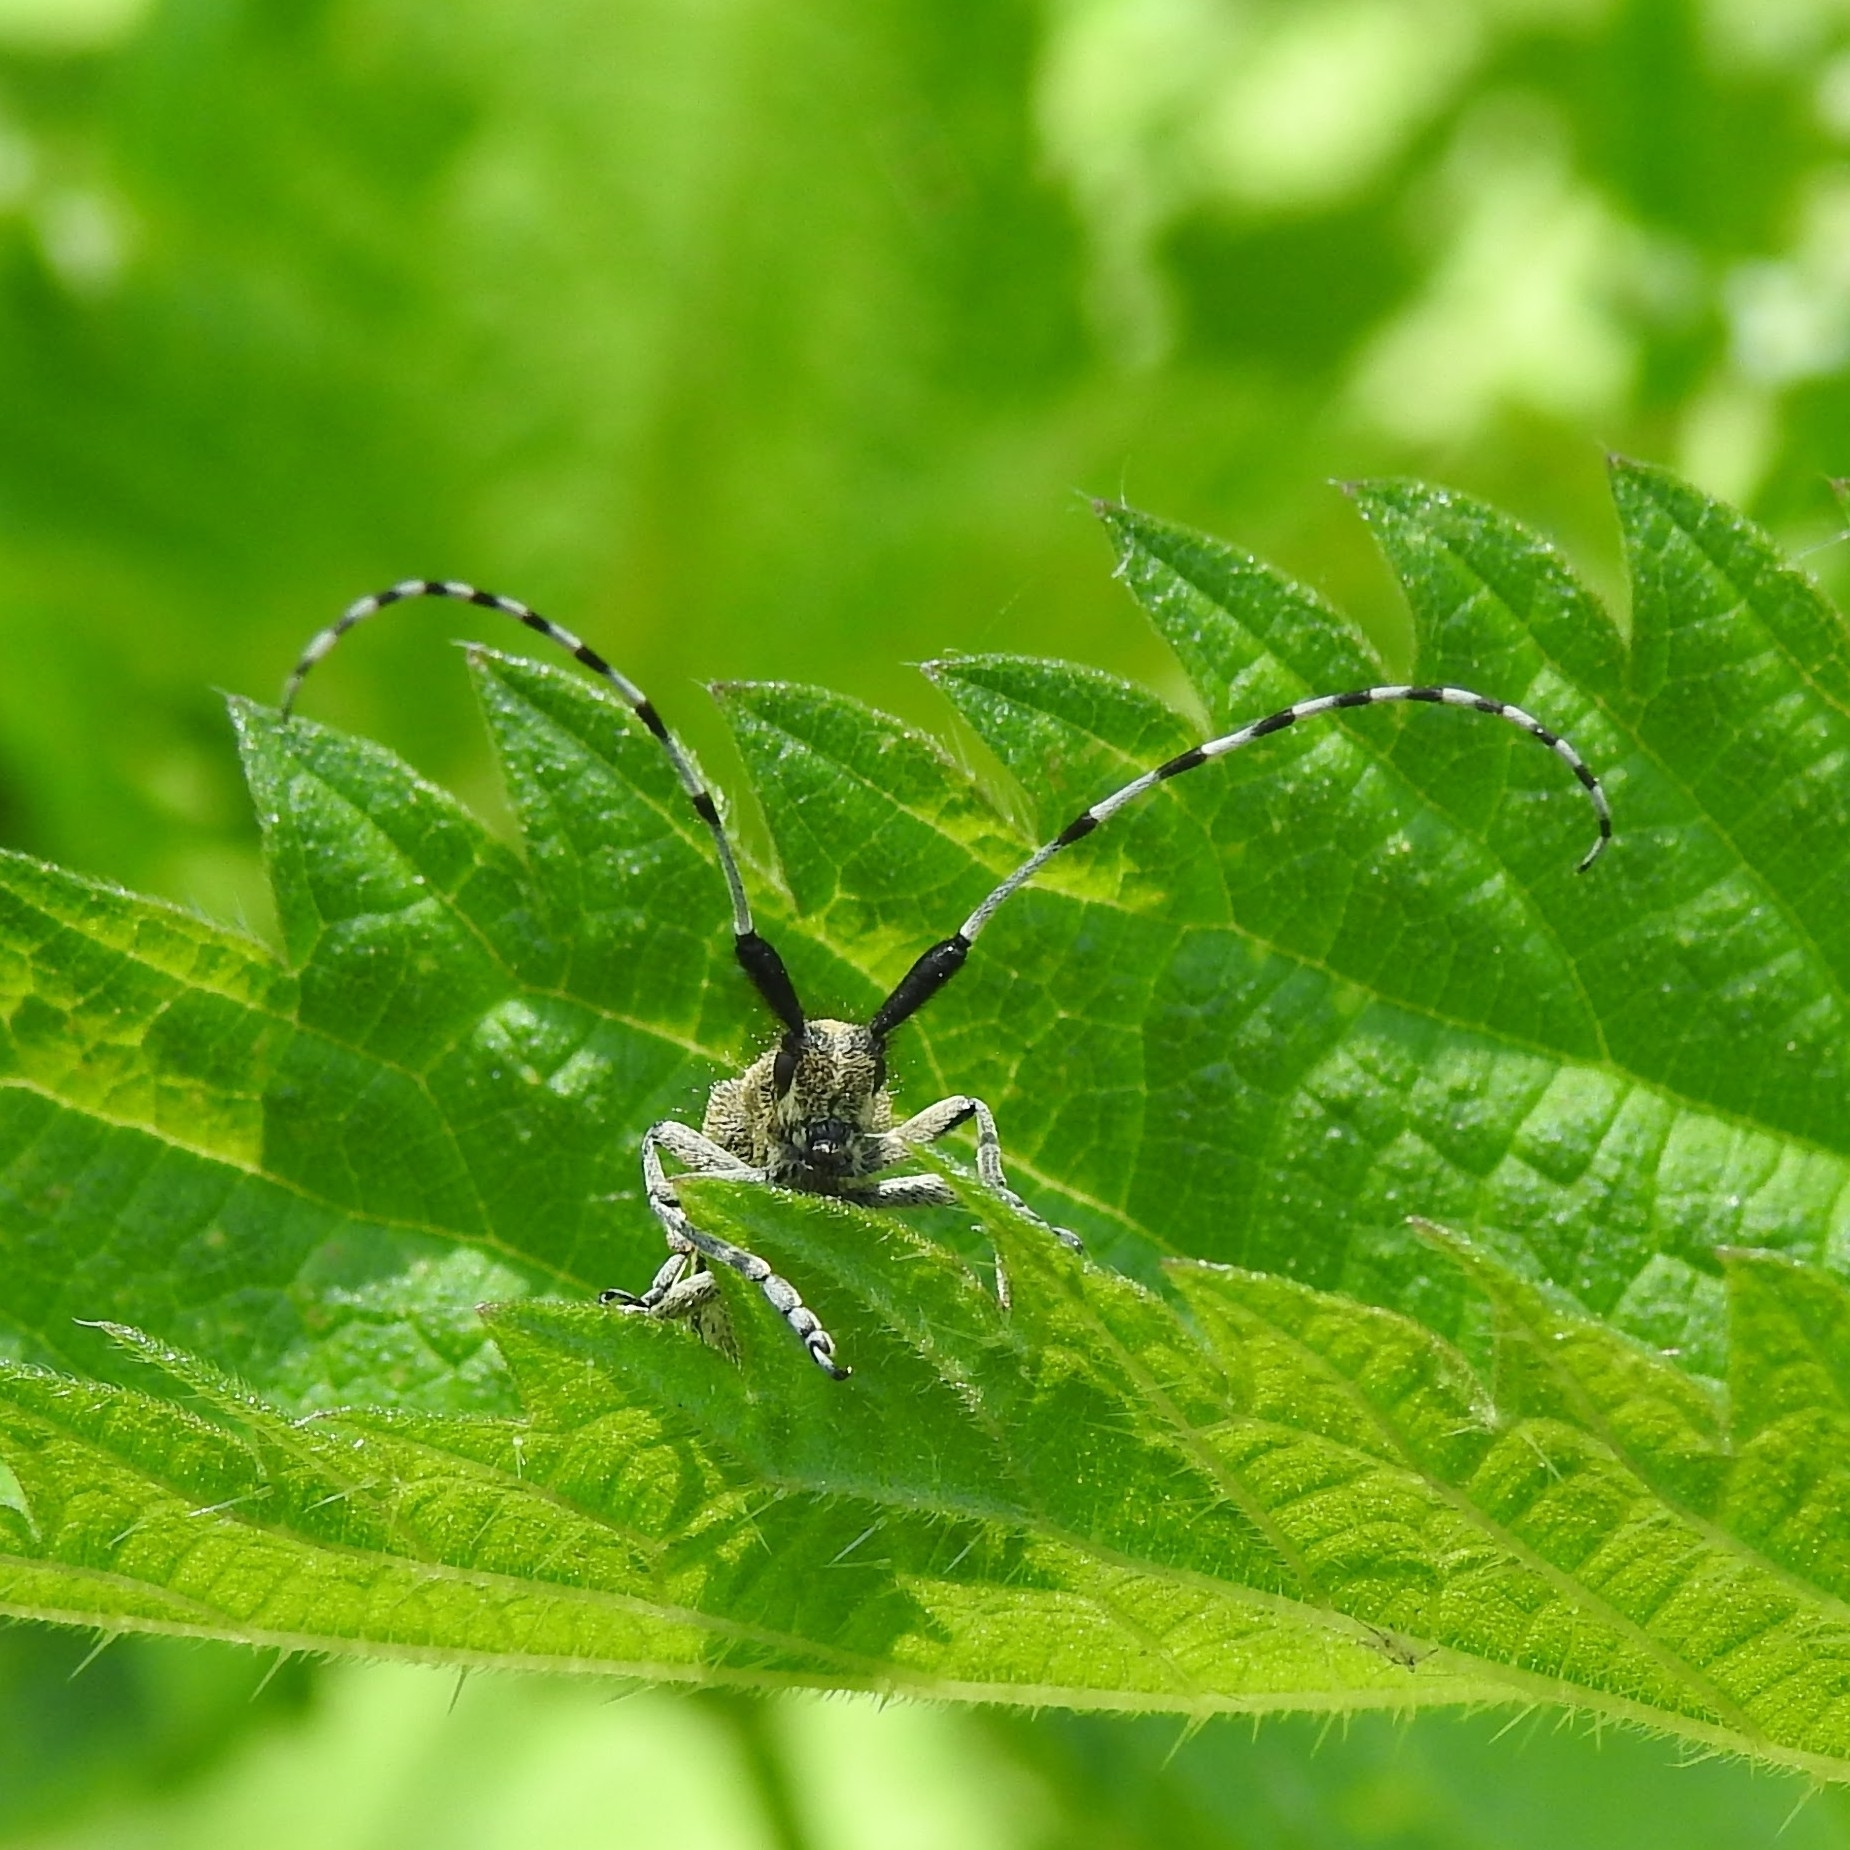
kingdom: Animalia
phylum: Arthropoda
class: Insecta
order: Coleoptera
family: Cerambycidae
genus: Agapanthia
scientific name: Agapanthia villosoviridescens
